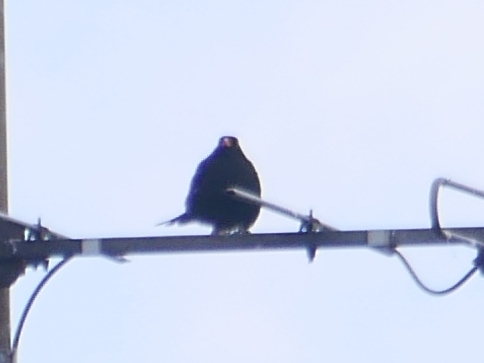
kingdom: Animalia
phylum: Chordata
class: Aves
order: Passeriformes
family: Turdidae
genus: Turdus
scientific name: Turdus merula
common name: Common blackbird
